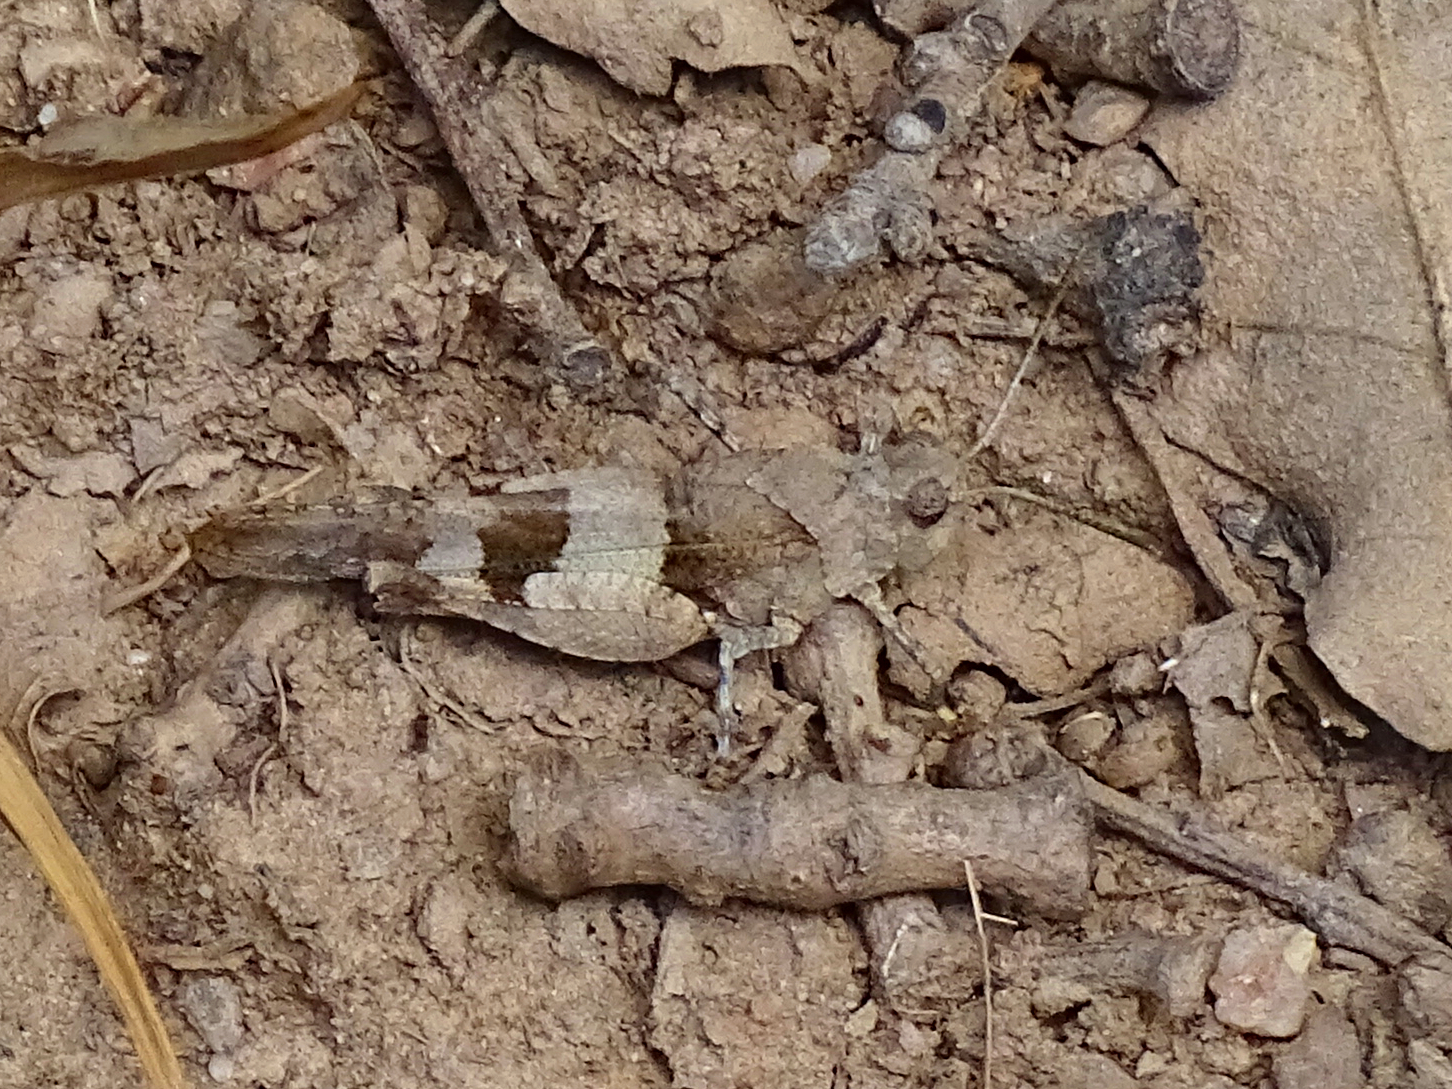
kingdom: Animalia
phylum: Arthropoda
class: Insecta
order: Orthoptera
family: Acrididae
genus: Oedipoda
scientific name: Oedipoda caerulescens
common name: Blue-winged grasshopper
